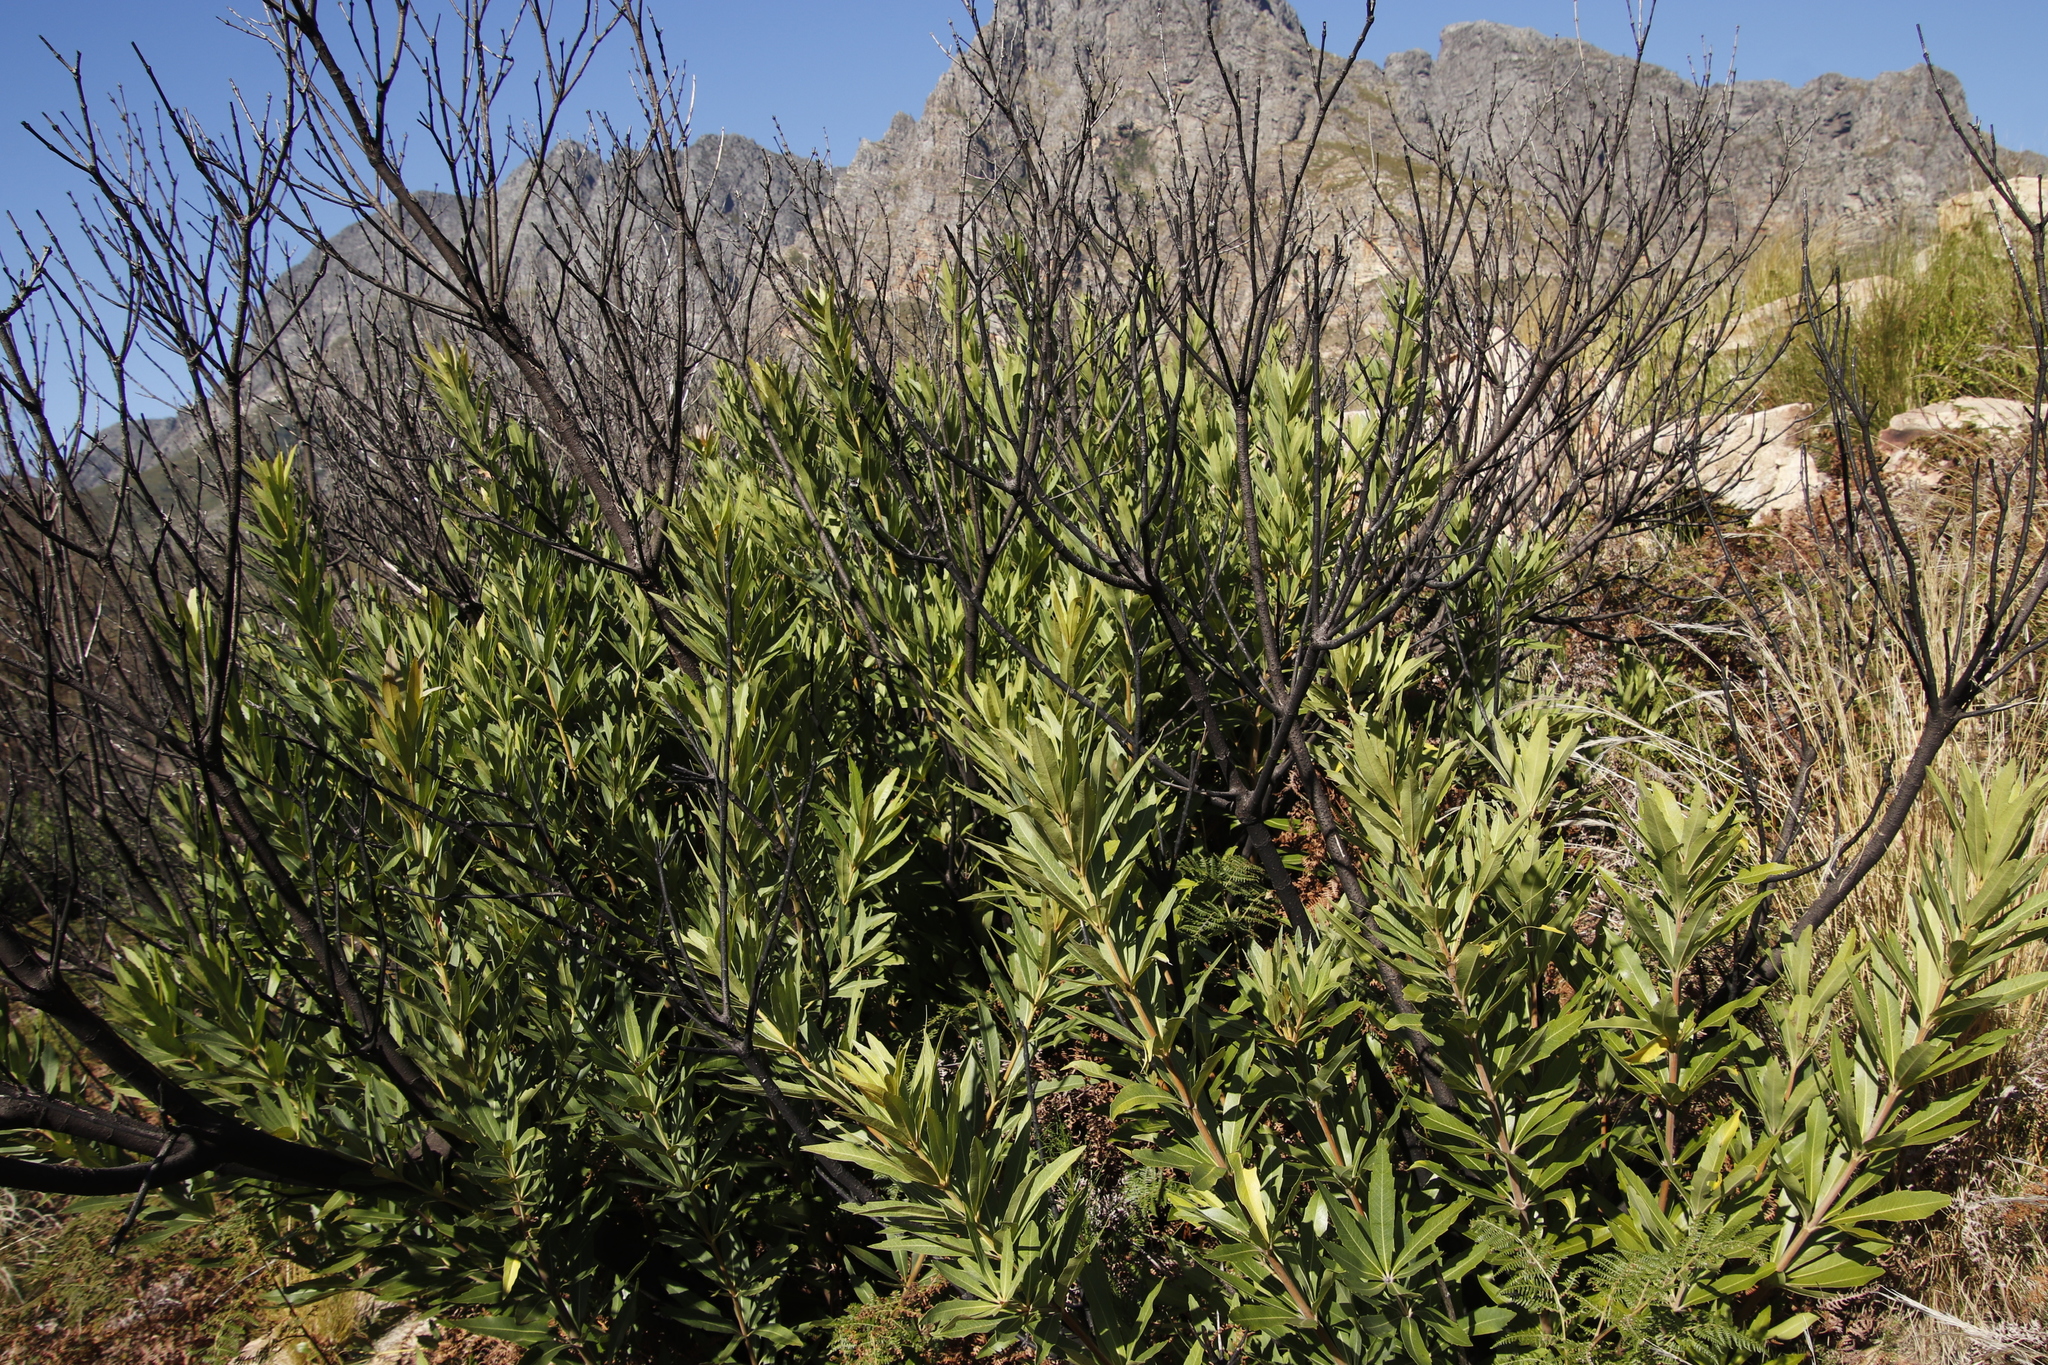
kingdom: Plantae
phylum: Tracheophyta
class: Magnoliopsida
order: Proteales
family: Proteaceae
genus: Brabejum
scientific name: Brabejum stellatifolium
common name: Wild almond
